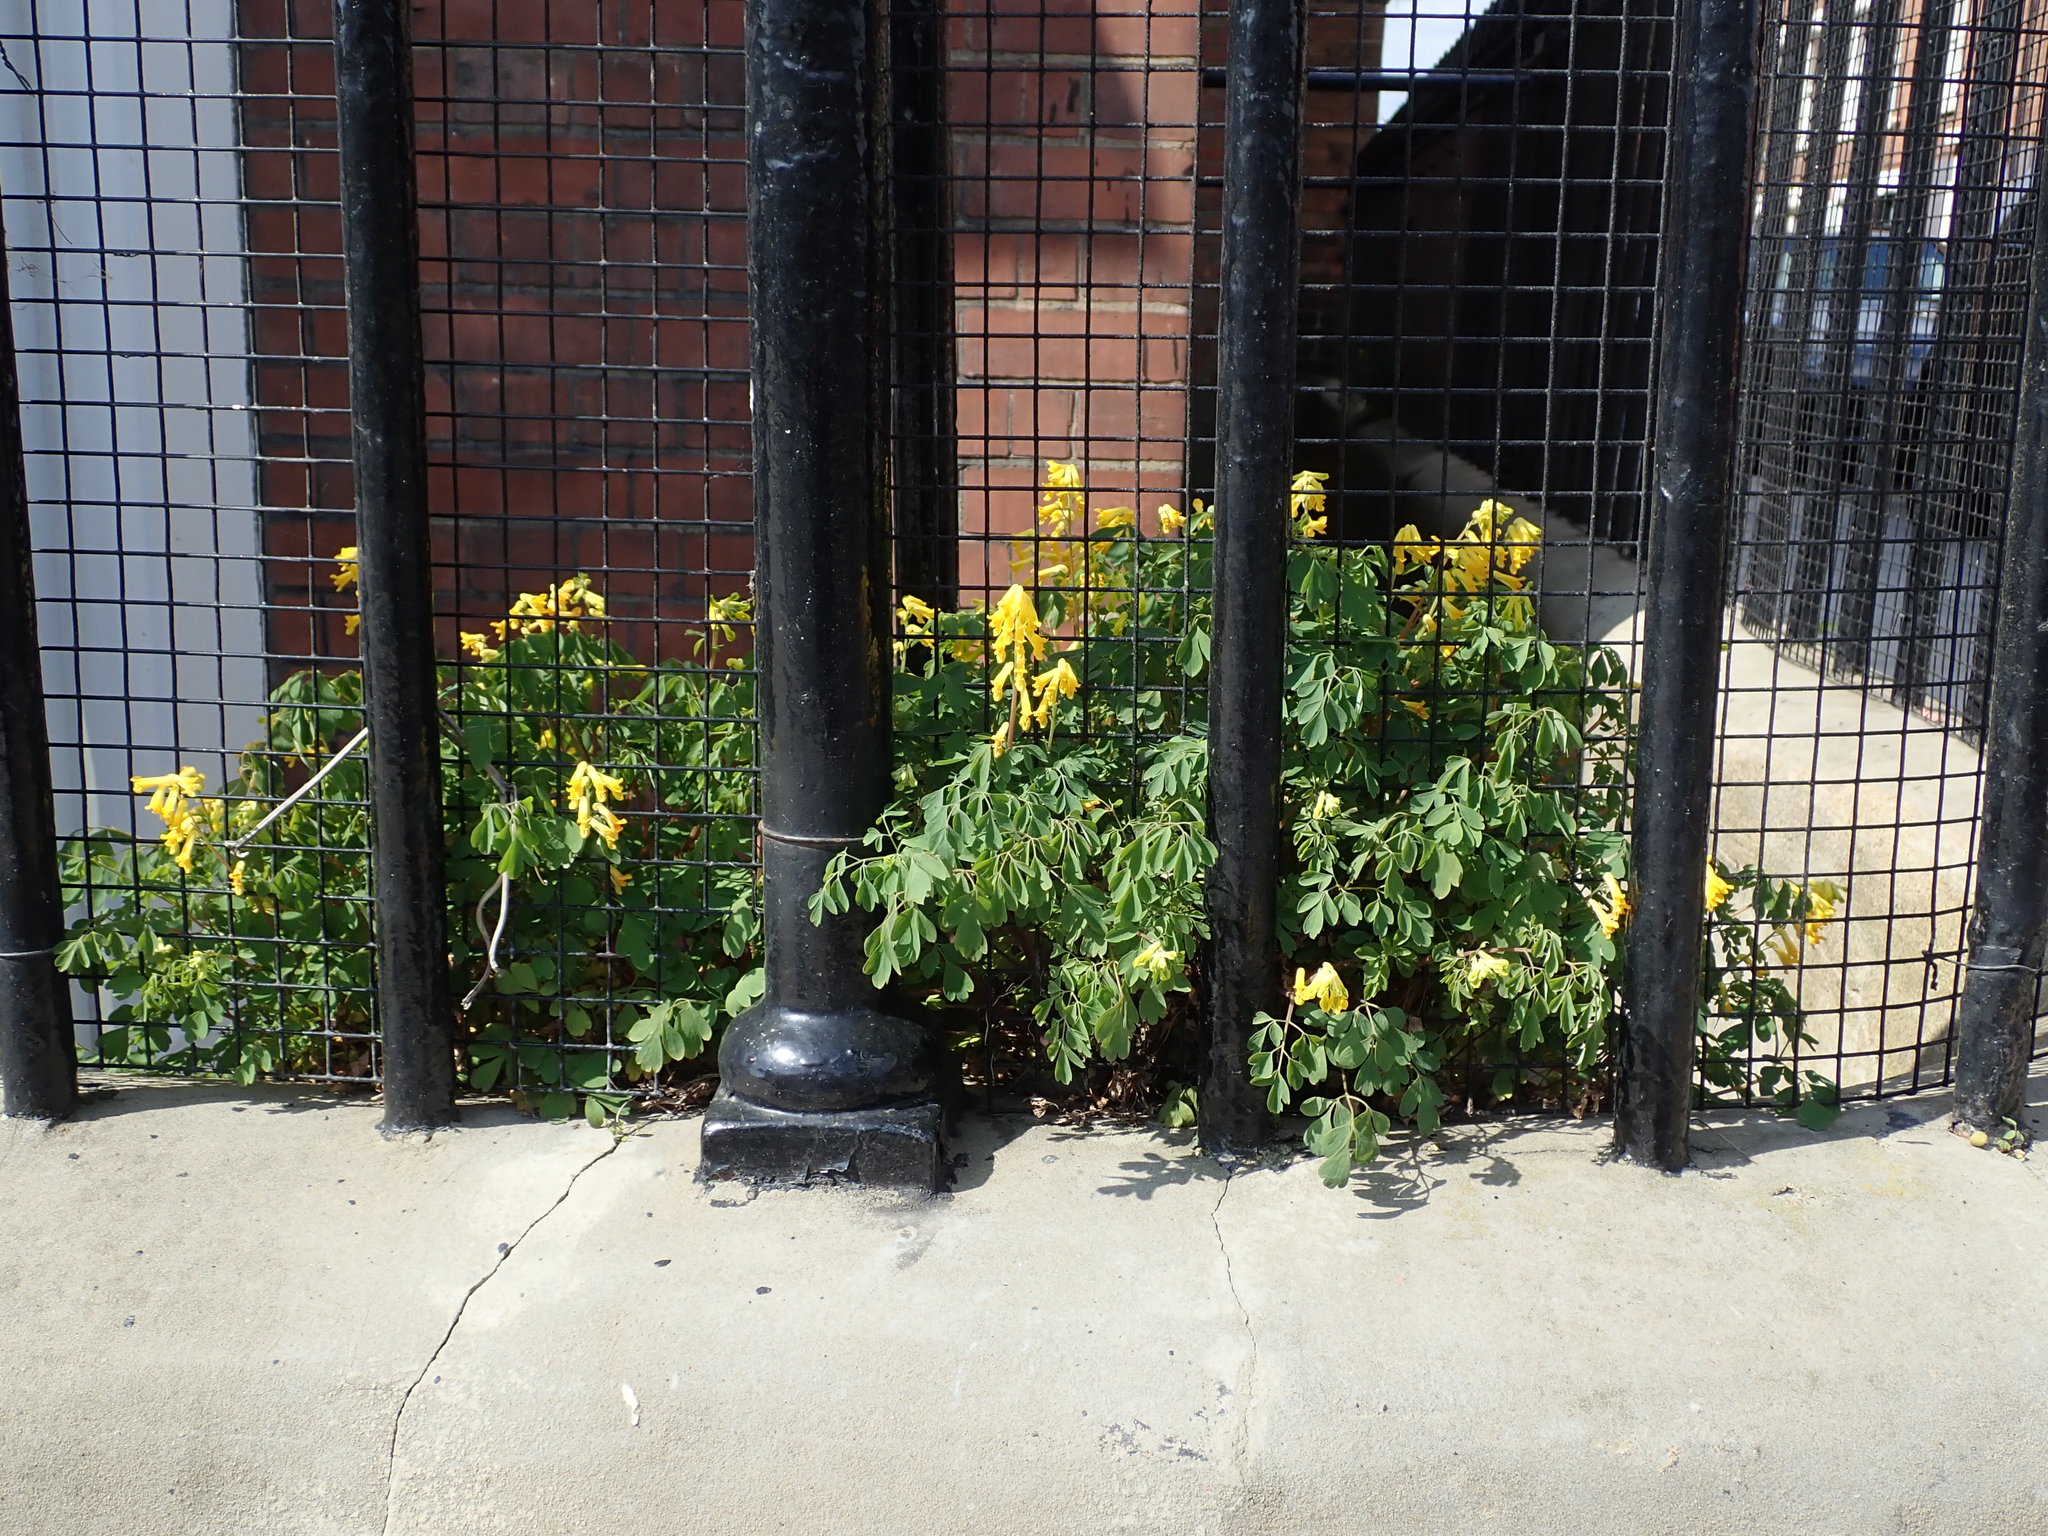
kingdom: Plantae
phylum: Tracheophyta
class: Magnoliopsida
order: Ranunculales
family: Papaveraceae
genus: Pseudofumaria
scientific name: Pseudofumaria lutea
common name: Yellow corydalis
